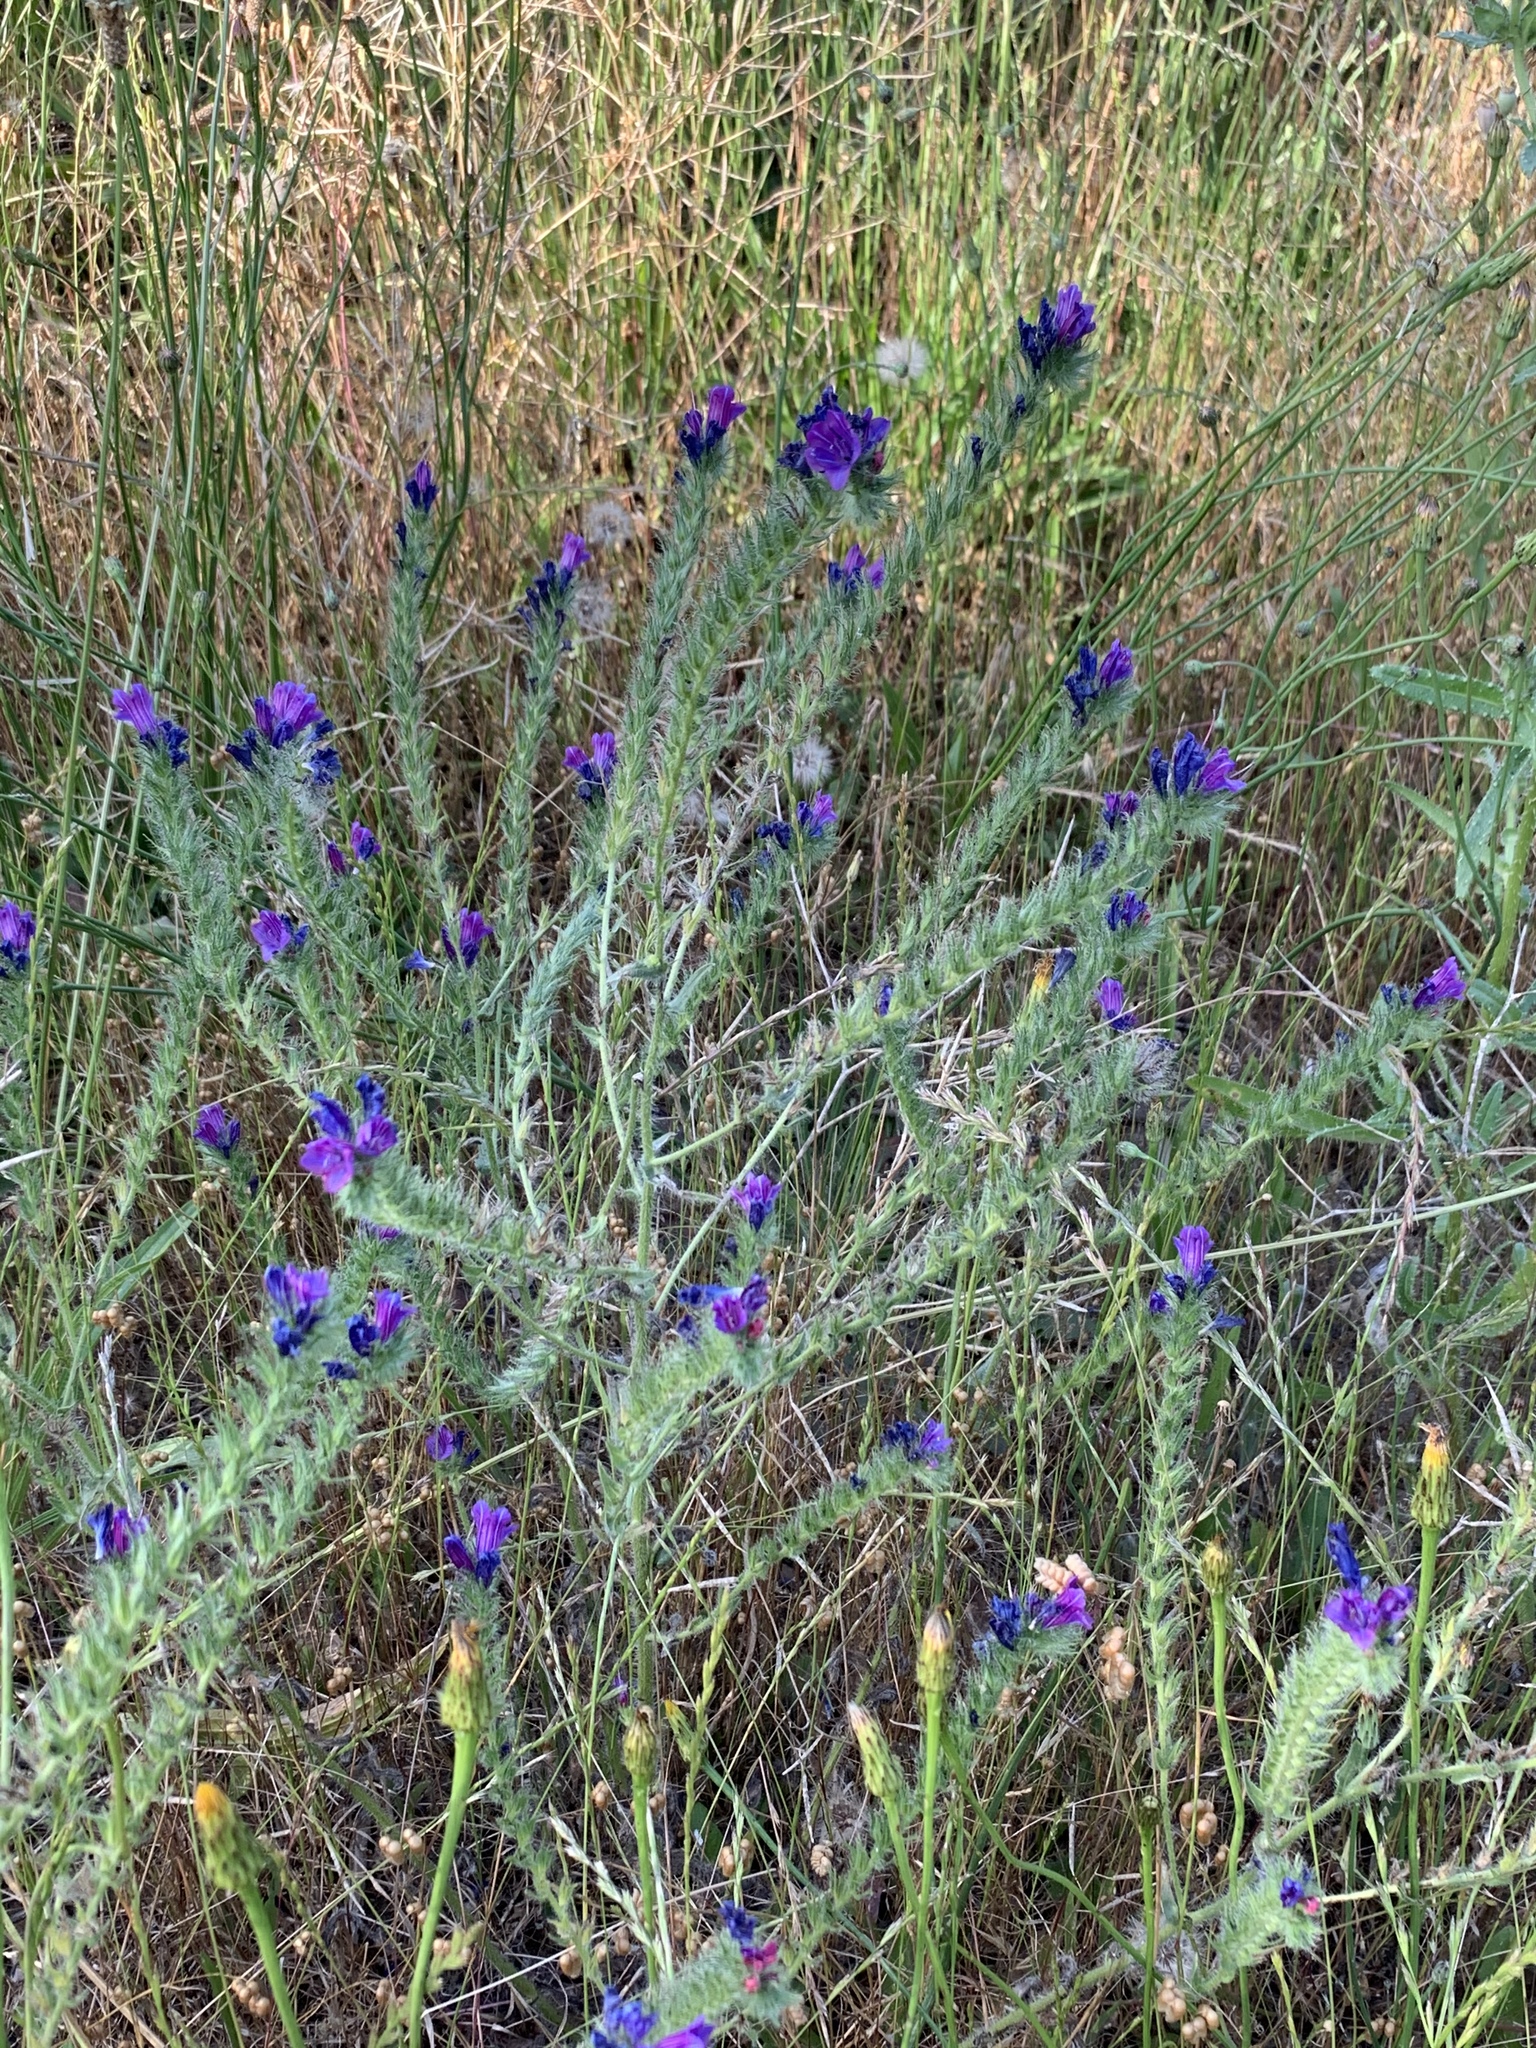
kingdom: Plantae
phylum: Tracheophyta
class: Magnoliopsida
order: Boraginales
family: Boraginaceae
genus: Echium
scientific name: Echium plantagineum
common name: Purple viper's-bugloss
